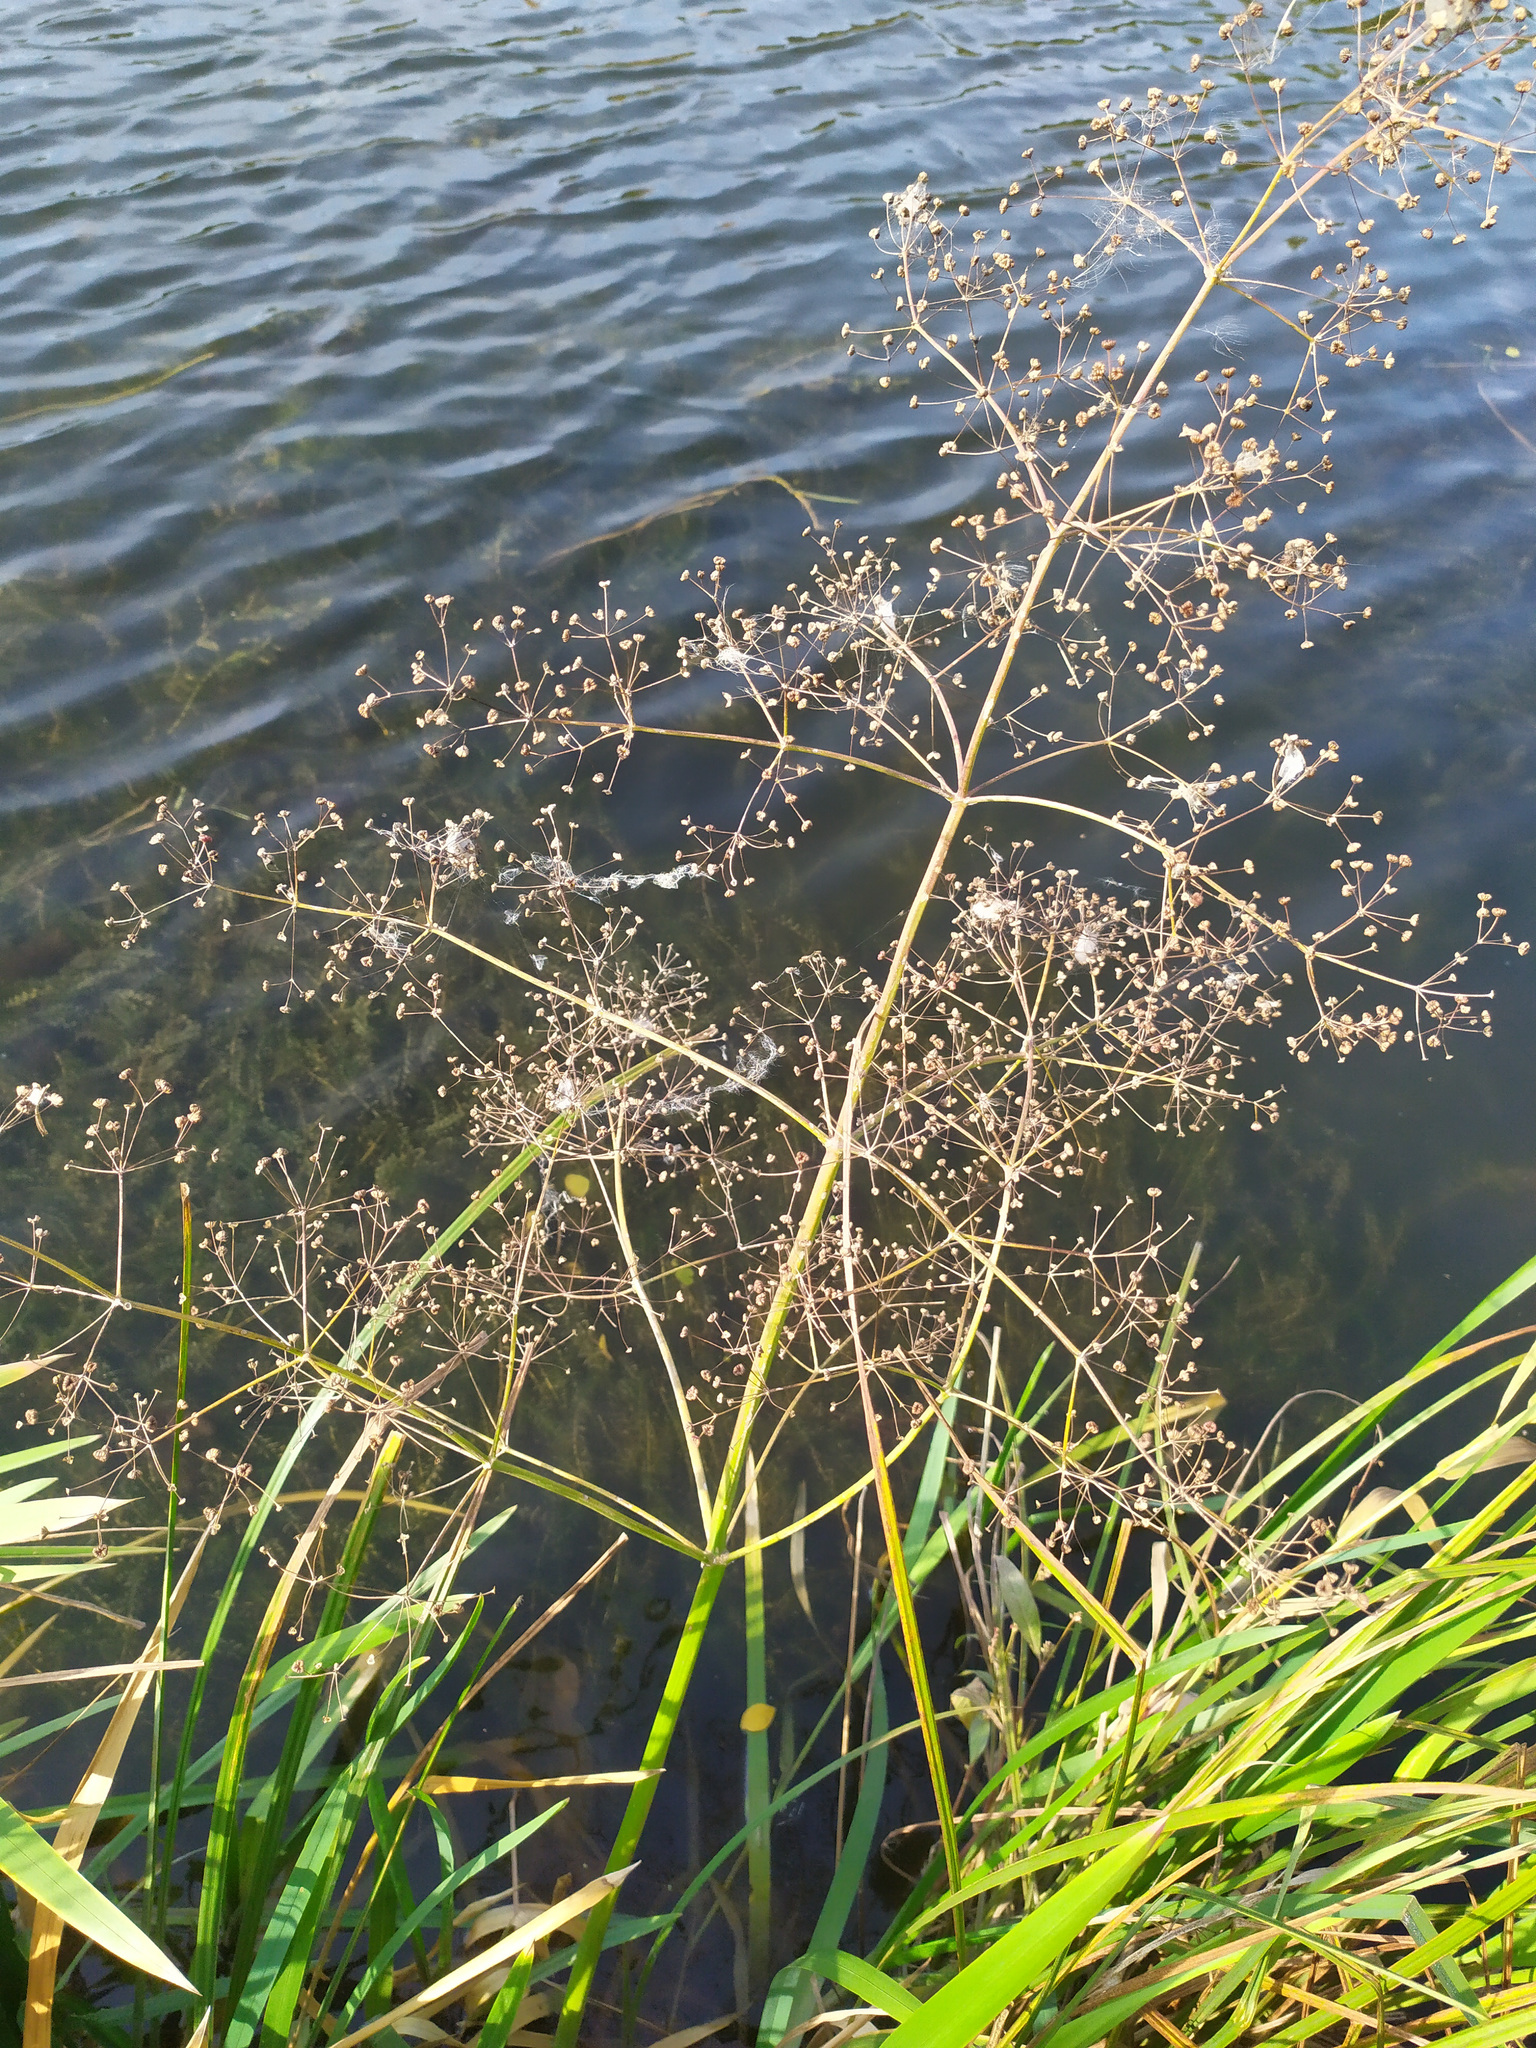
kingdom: Plantae
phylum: Tracheophyta
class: Liliopsida
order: Alismatales
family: Alismataceae
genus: Alisma
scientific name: Alisma plantago-aquatica
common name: Water-plantain
